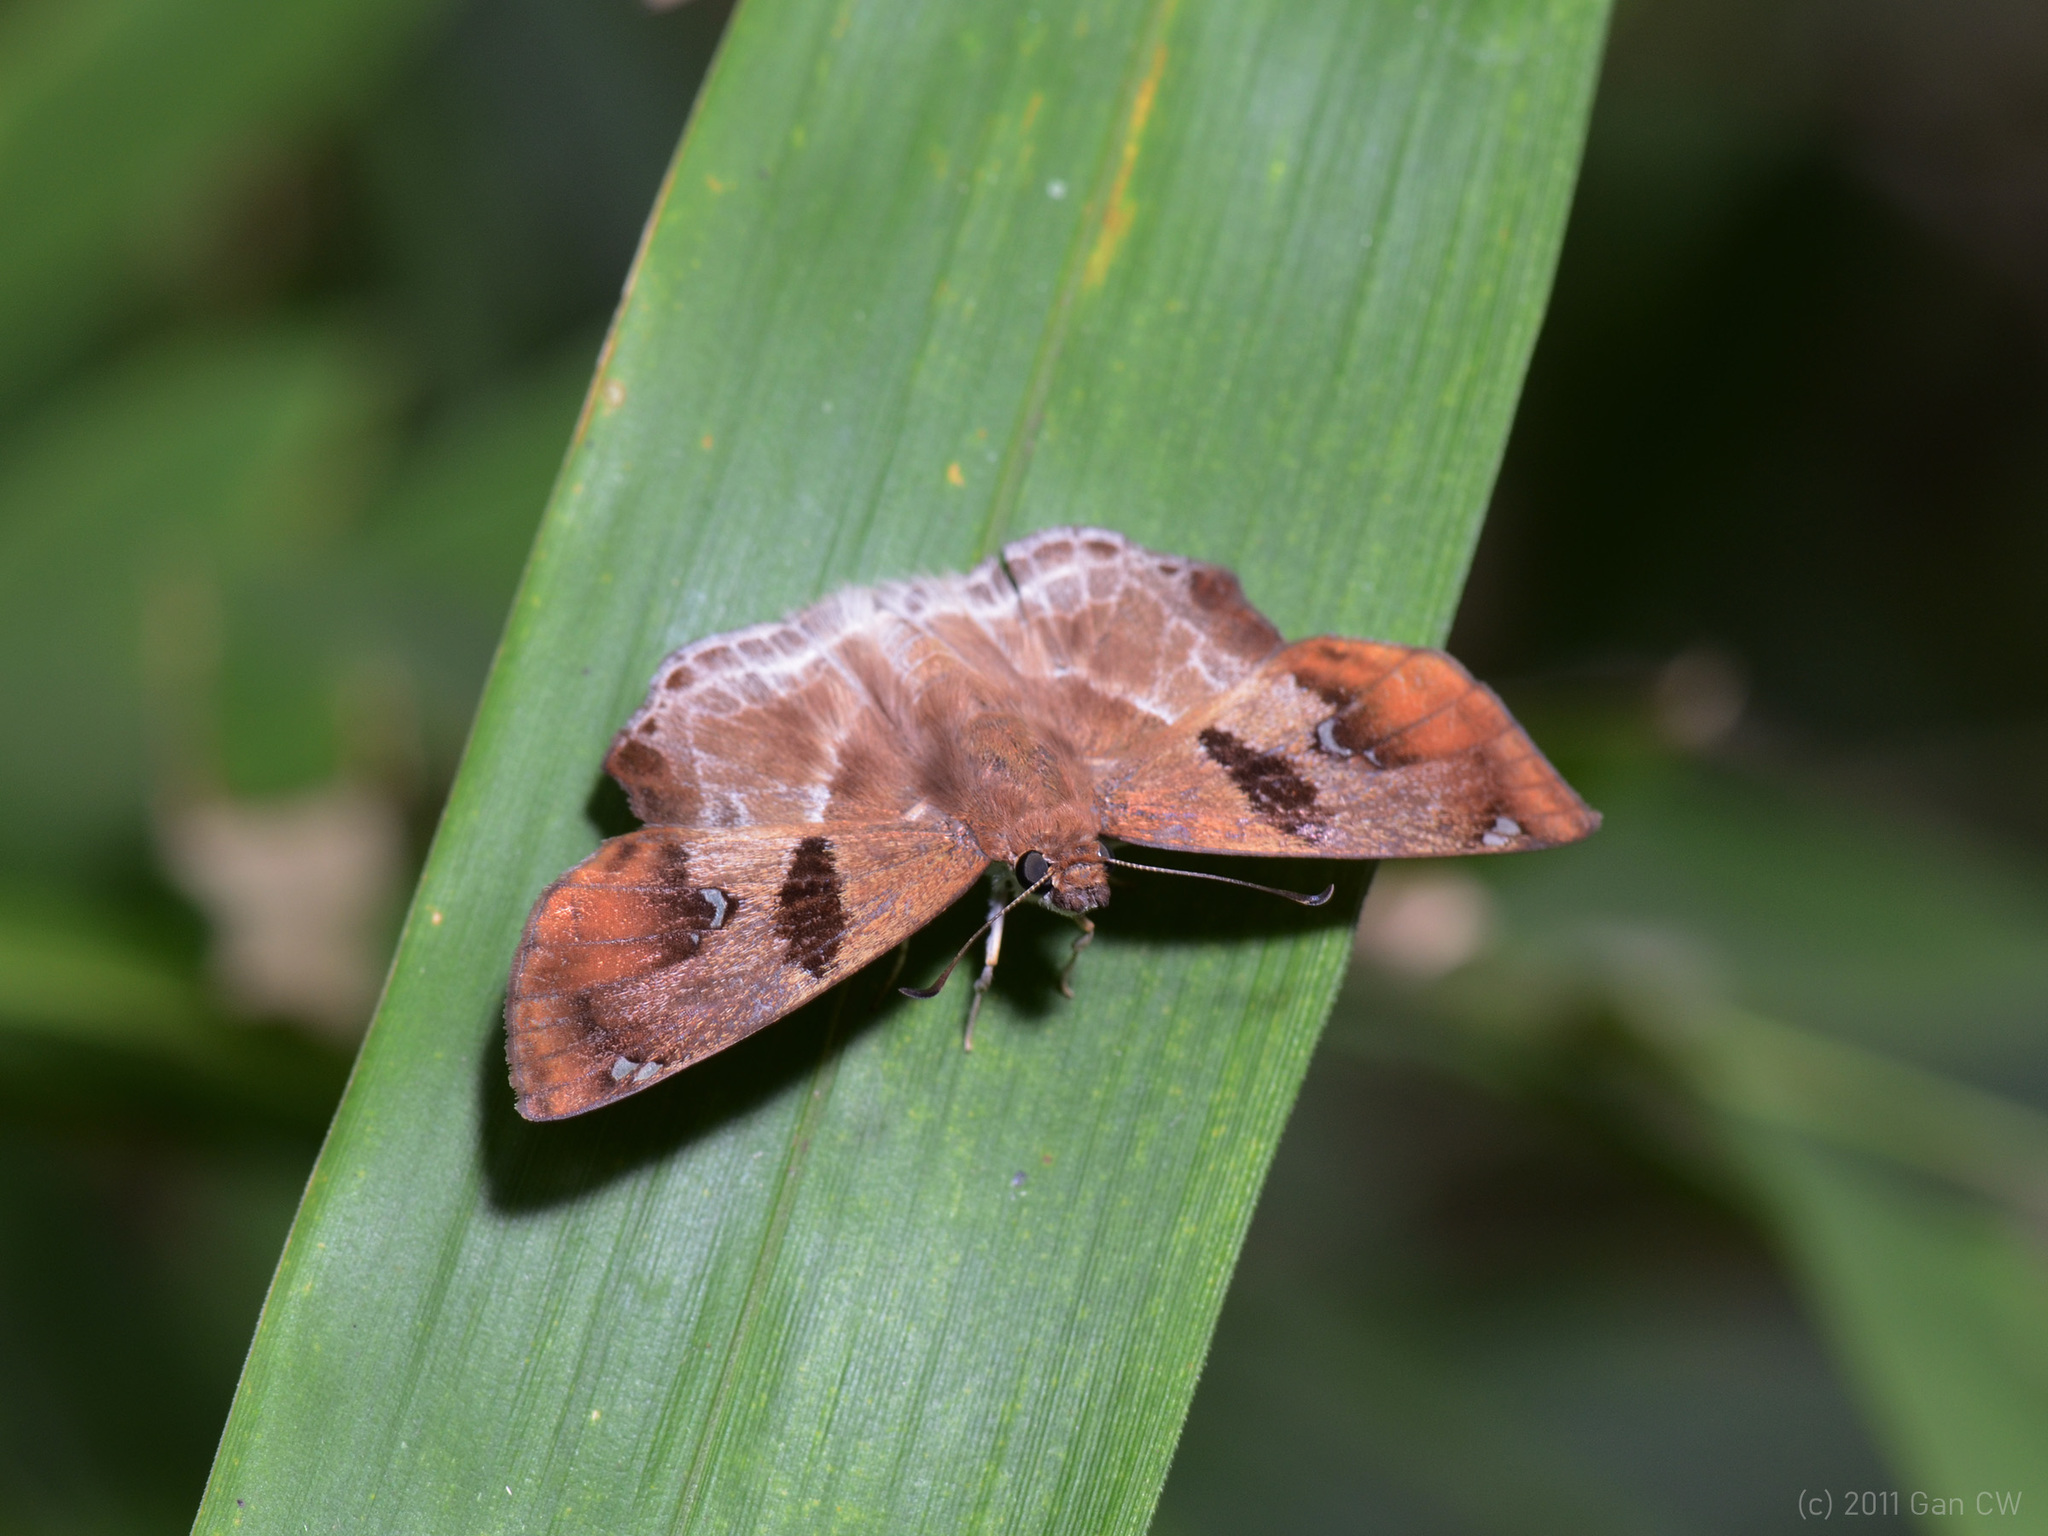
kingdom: Animalia
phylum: Arthropoda
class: Insecta
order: Lepidoptera
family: Hesperiidae
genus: Odontoptilum
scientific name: Odontoptilum angulata
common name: Chestnut banded angle
